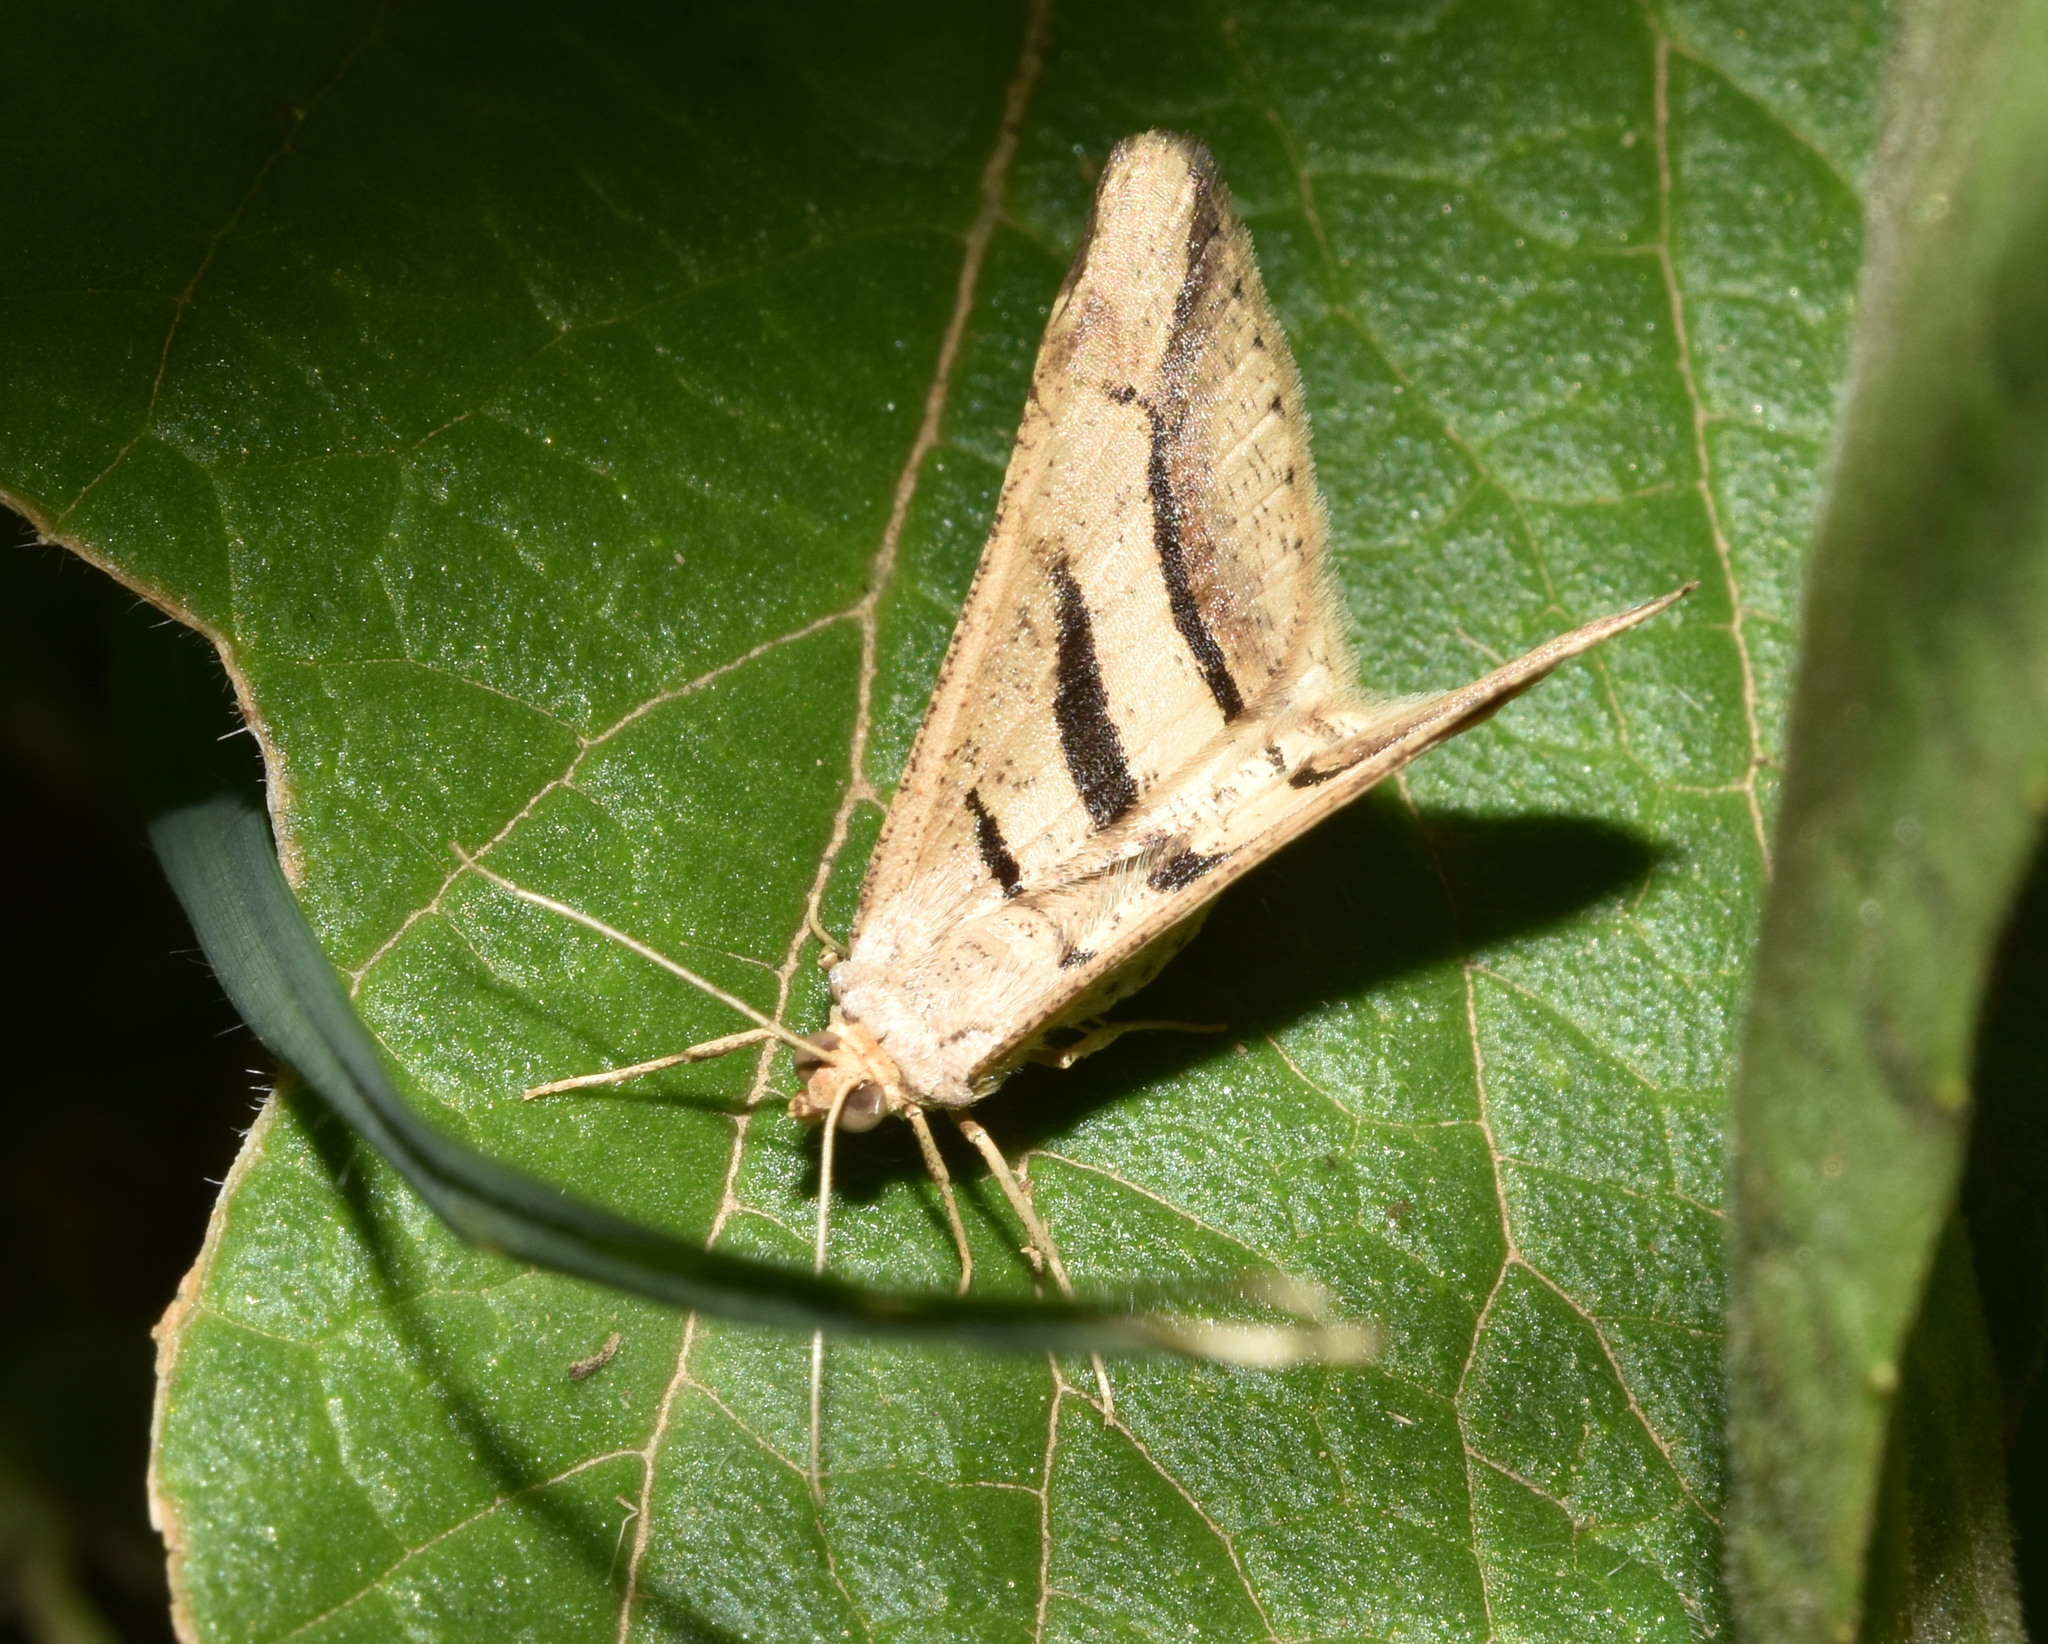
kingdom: Animalia
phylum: Arthropoda
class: Insecta
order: Lepidoptera
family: Geometridae
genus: Chiasmia
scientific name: Chiasmia subcurvaria
